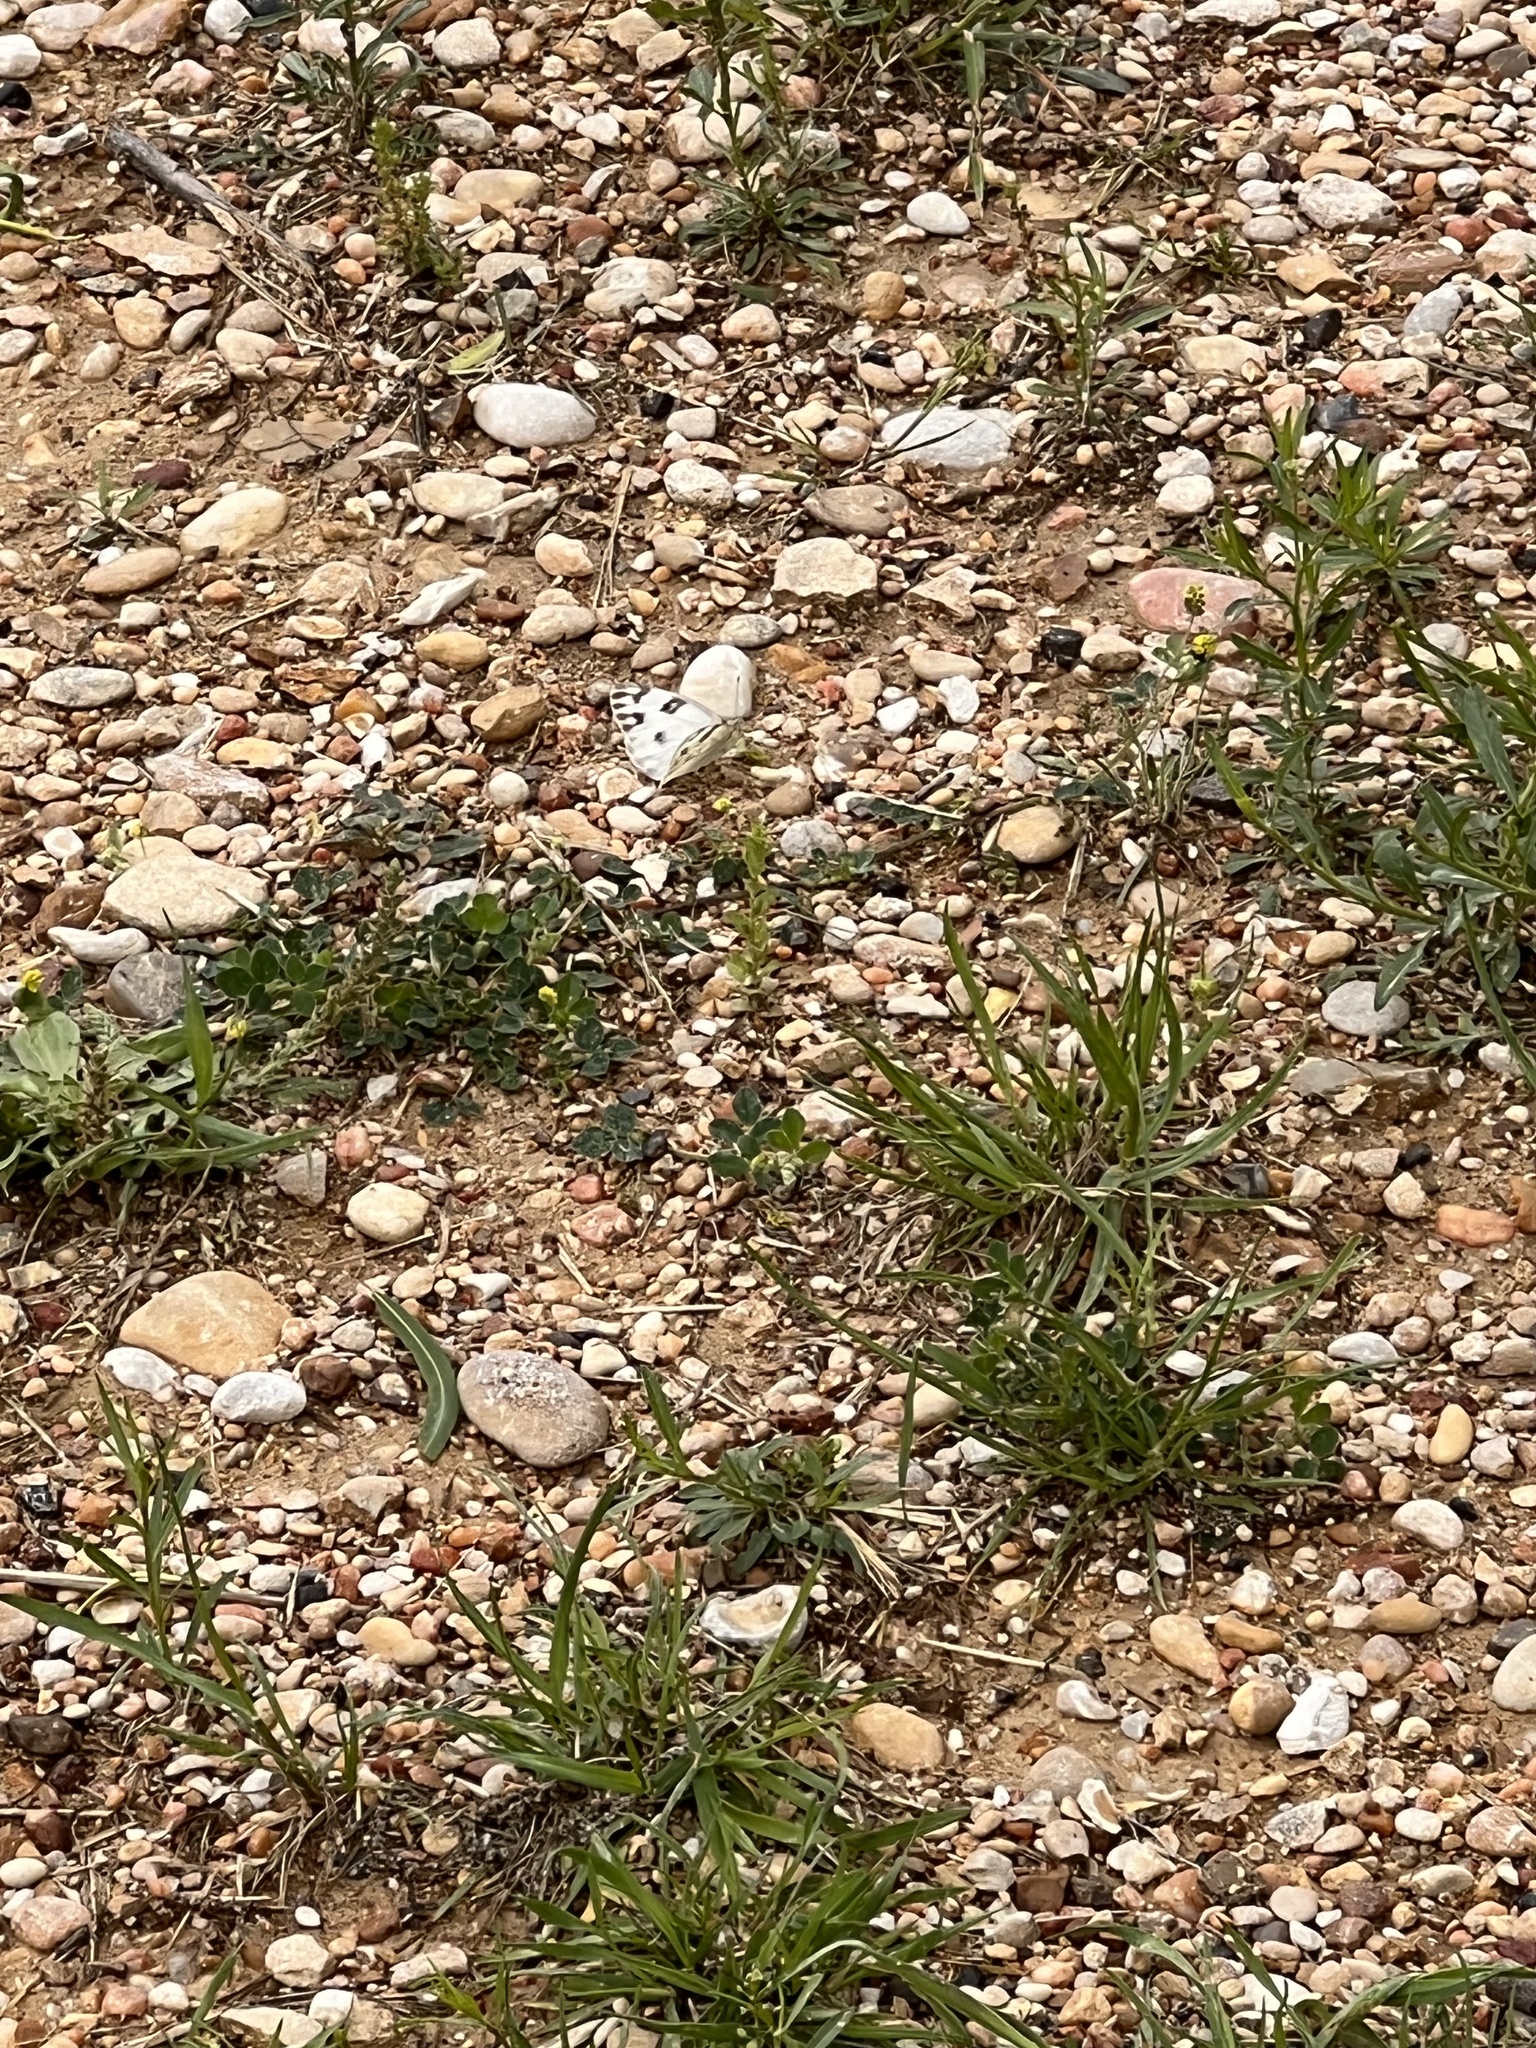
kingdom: Animalia
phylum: Arthropoda
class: Insecta
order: Lepidoptera
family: Pieridae
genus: Pontia
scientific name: Pontia protodice
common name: Checkered white
